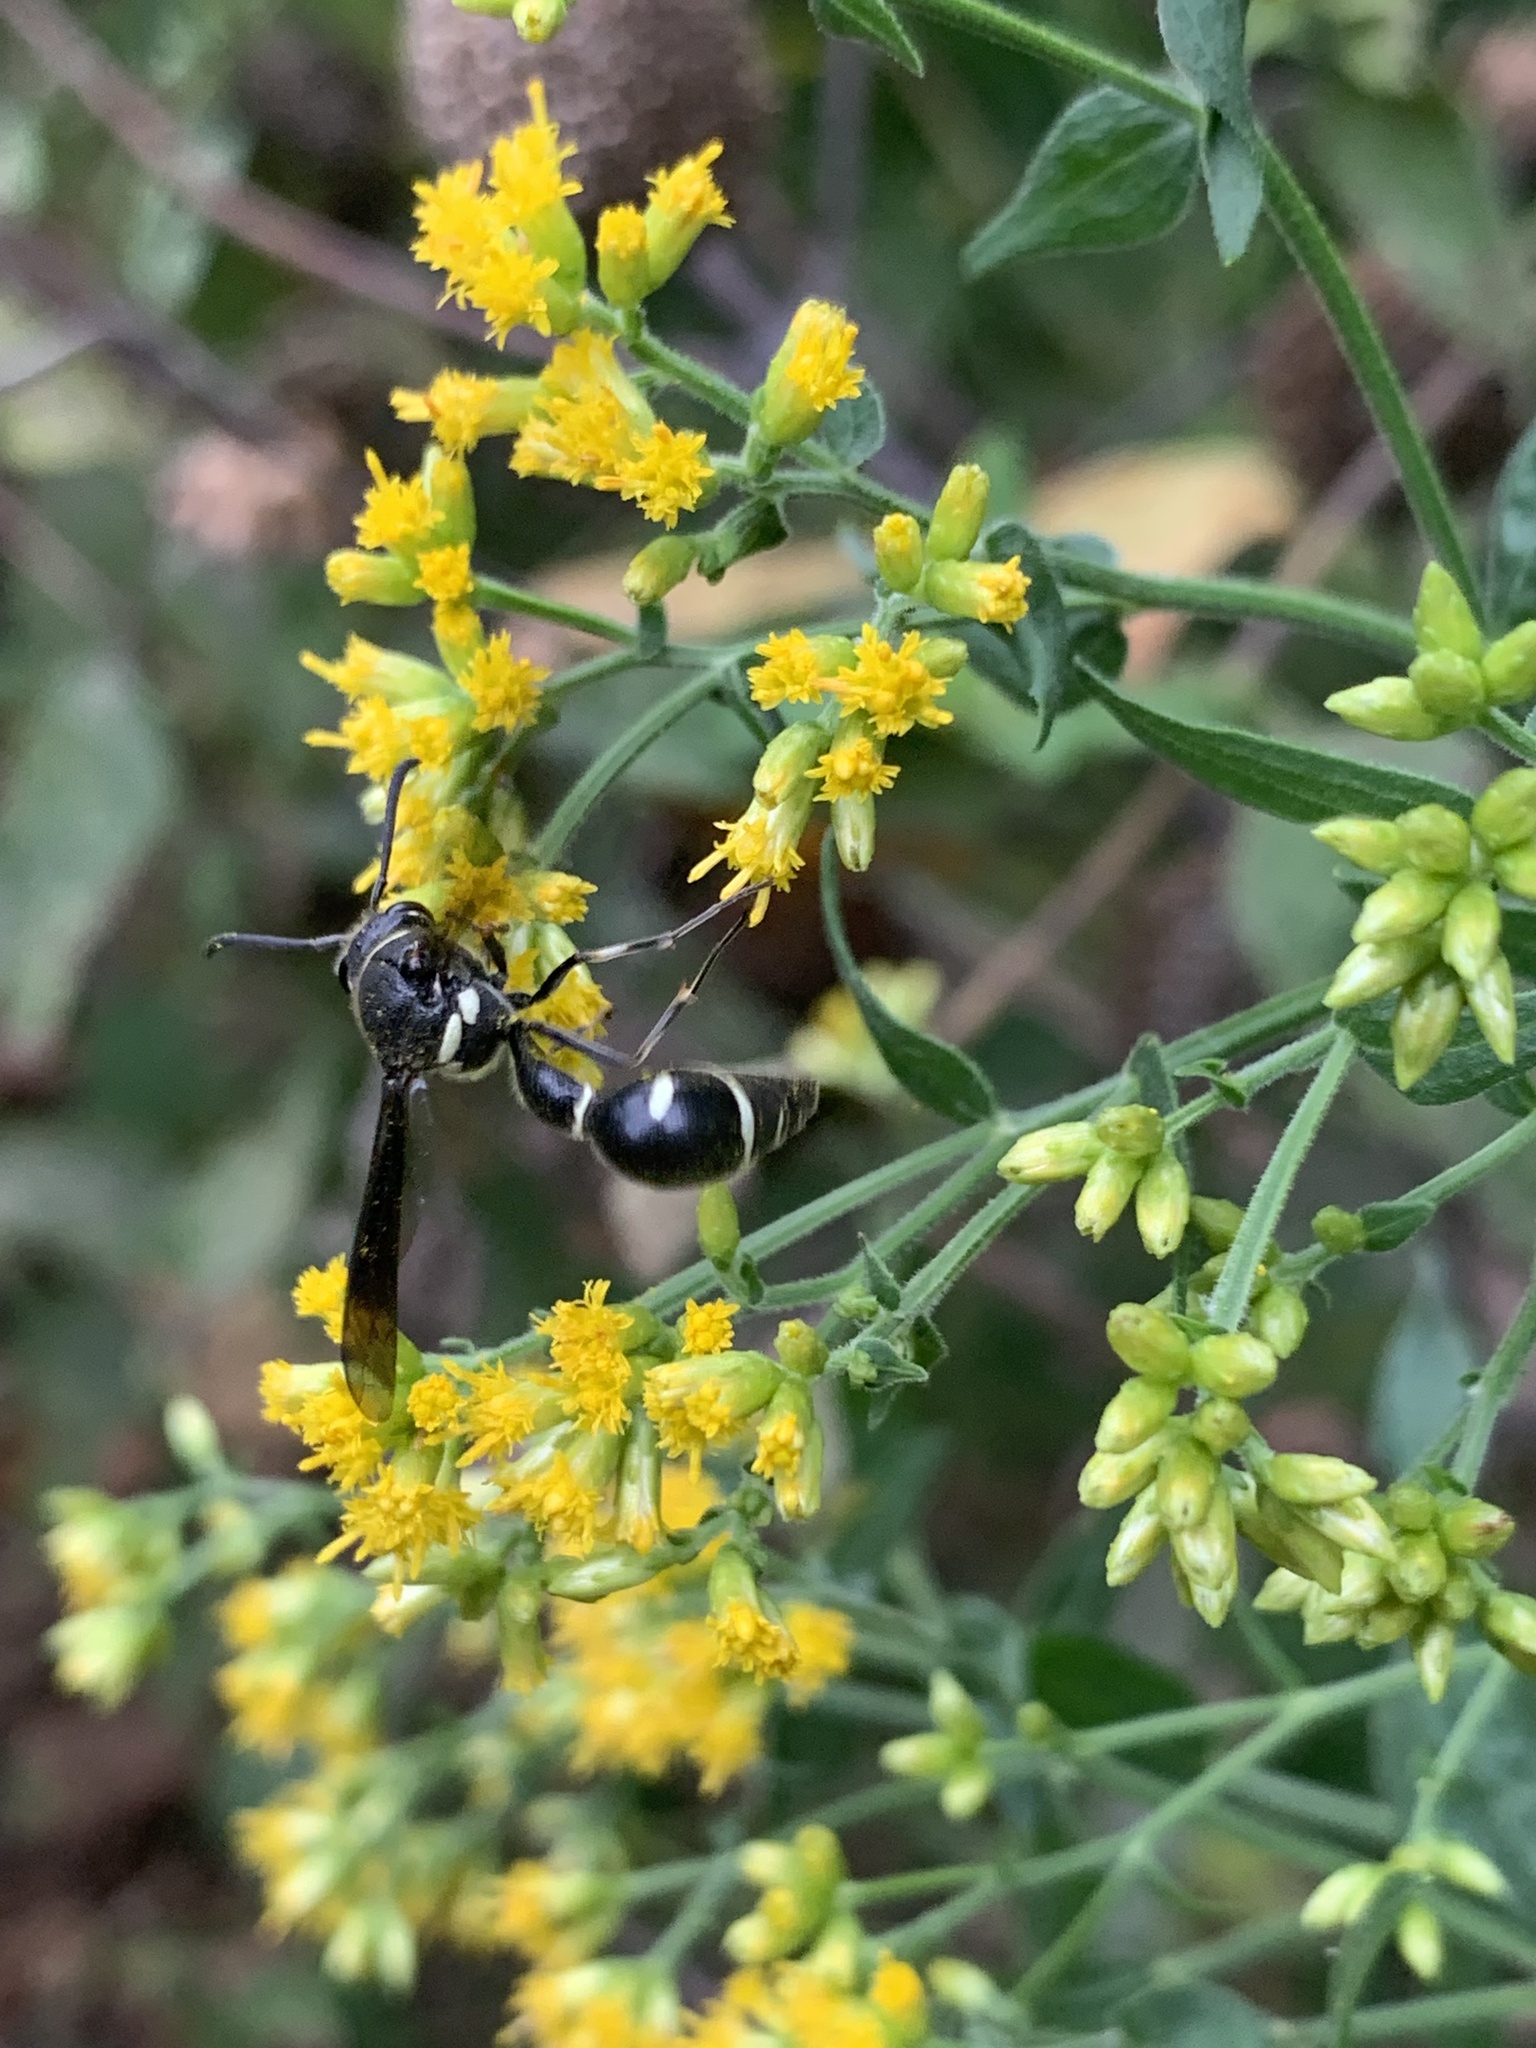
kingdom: Animalia
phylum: Arthropoda
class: Insecta
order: Hymenoptera
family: Vespidae
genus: Eumenes
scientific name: Eumenes fraternus
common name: Fraternal potter wasp
